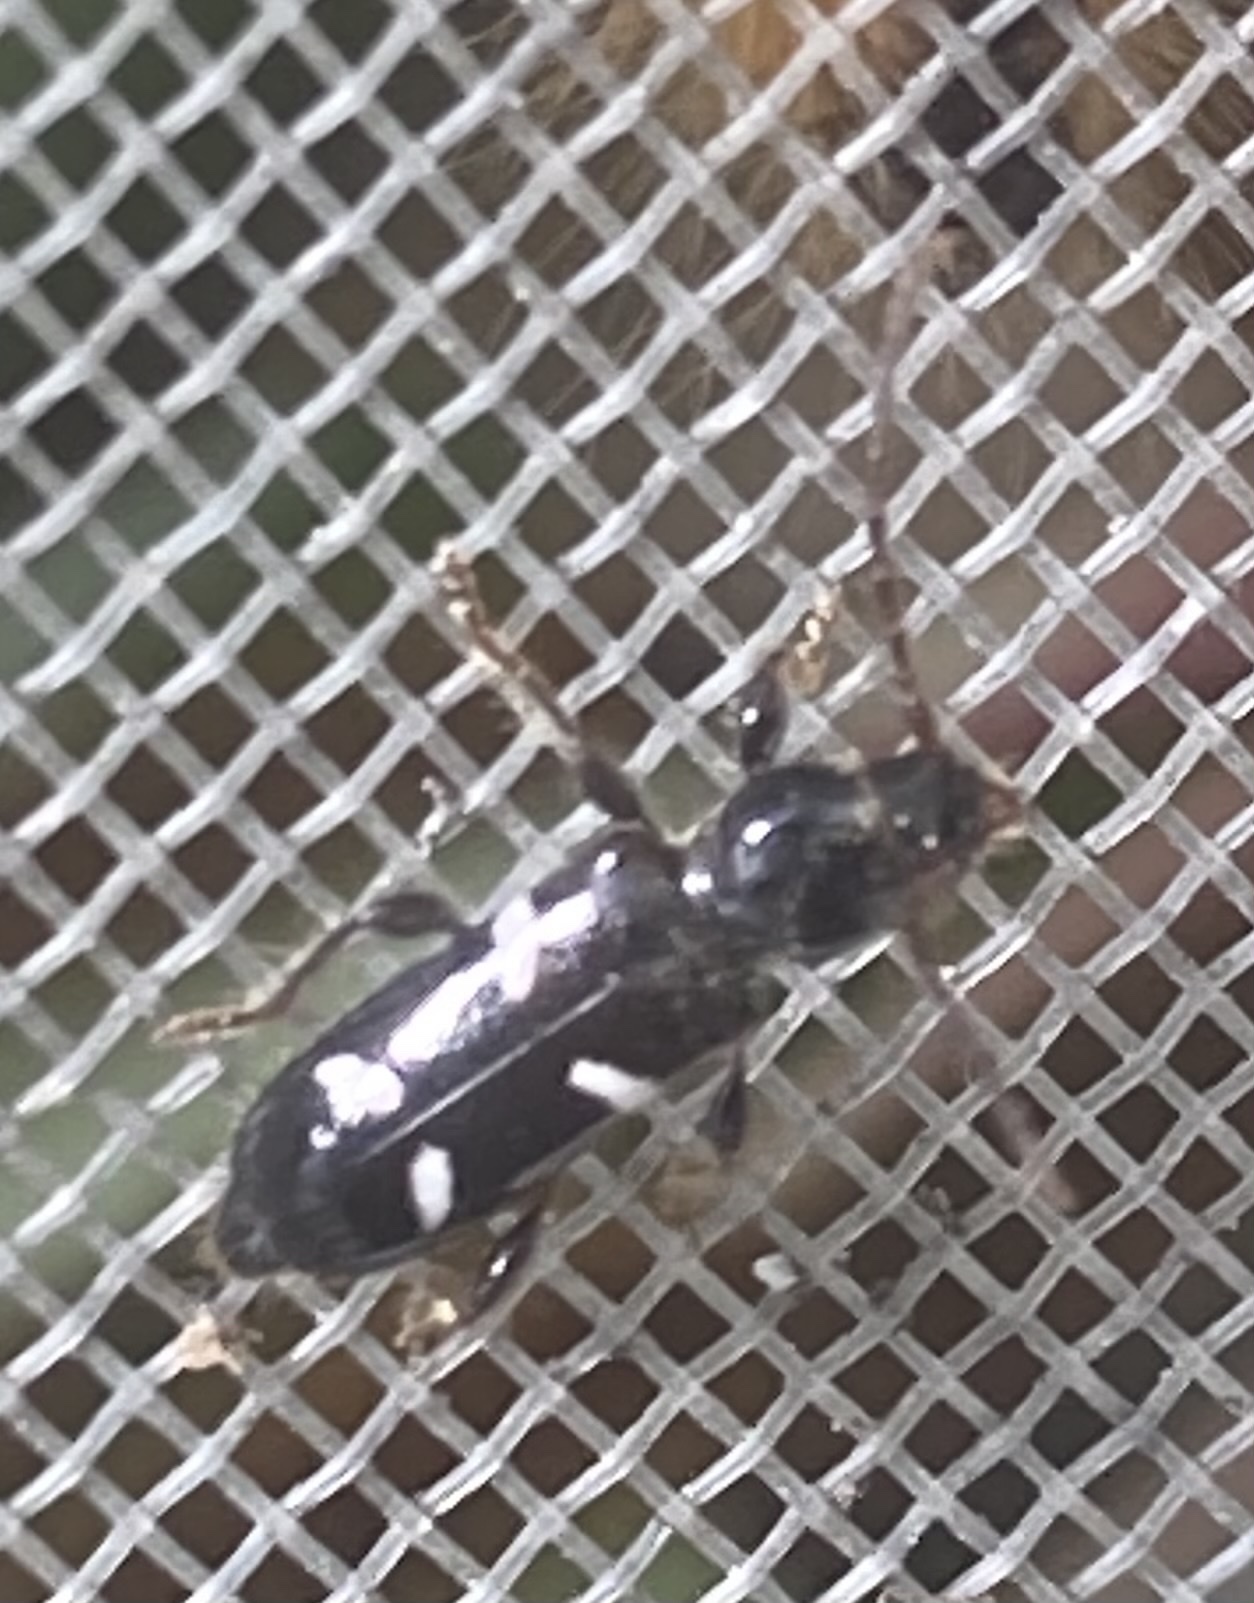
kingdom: Animalia
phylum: Arthropoda
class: Insecta
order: Coleoptera
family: Cerambycidae
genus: Phymatodes
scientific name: Phymatodes nitidus
